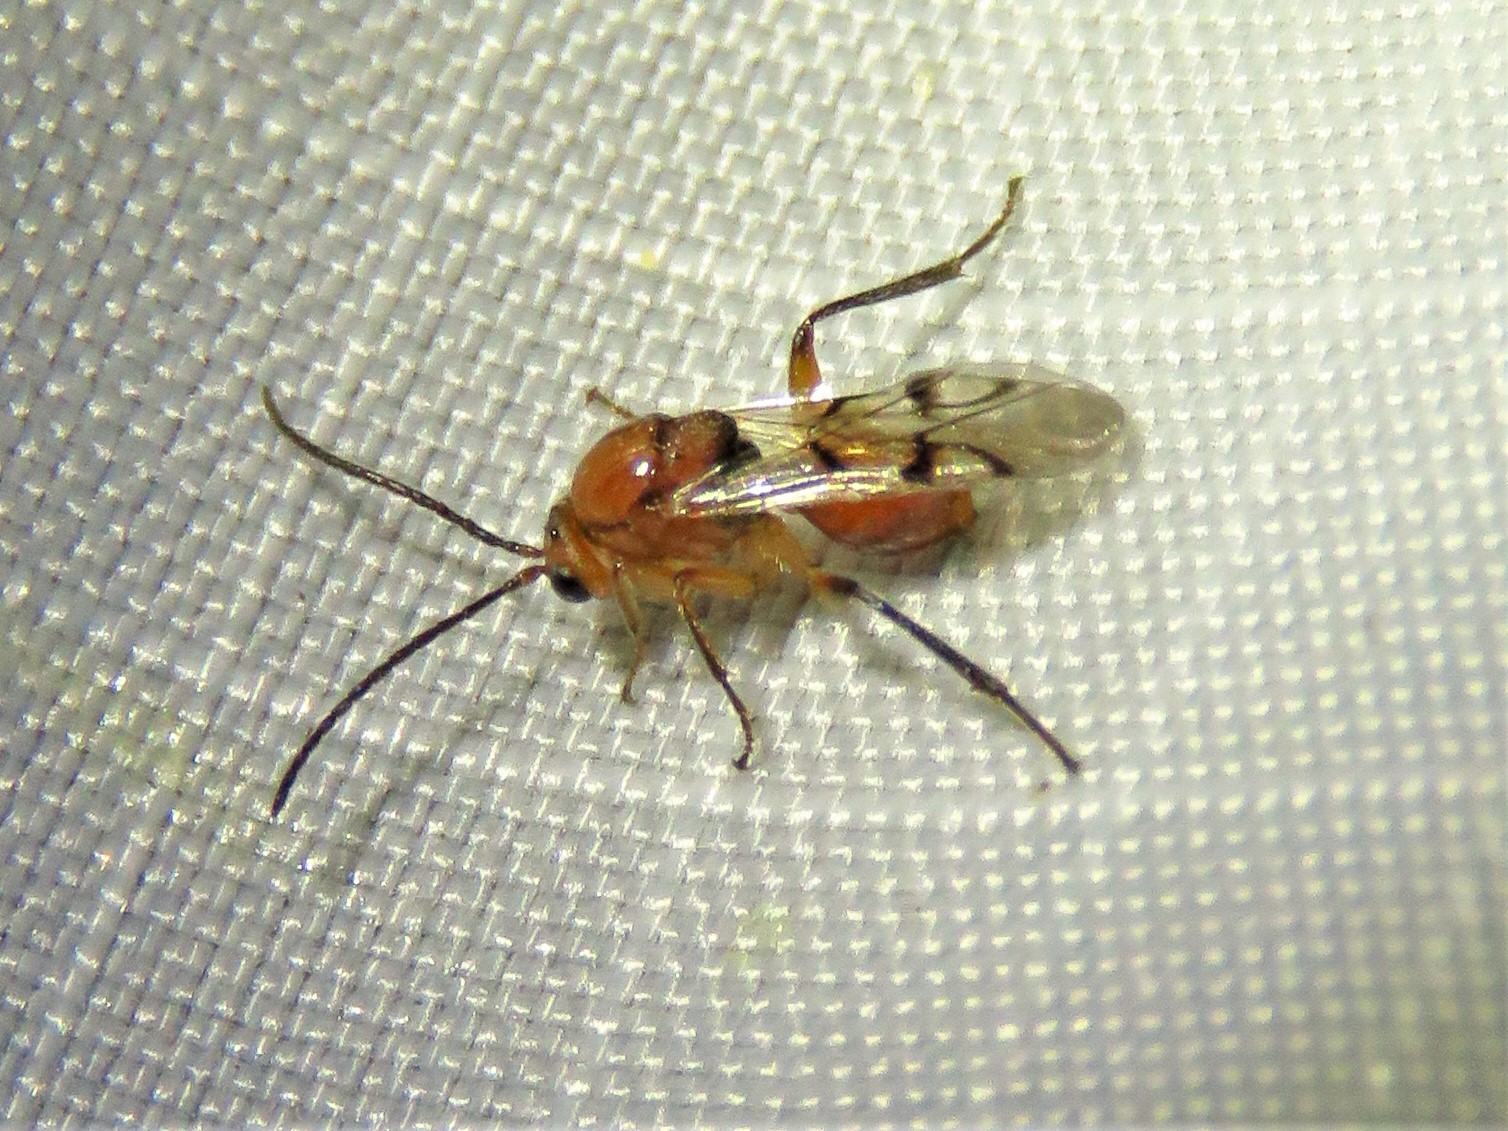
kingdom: Animalia
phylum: Arthropoda
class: Insecta
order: Hymenoptera
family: Cynipidae
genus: Belonocnema
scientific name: Belonocnema kinseyi
